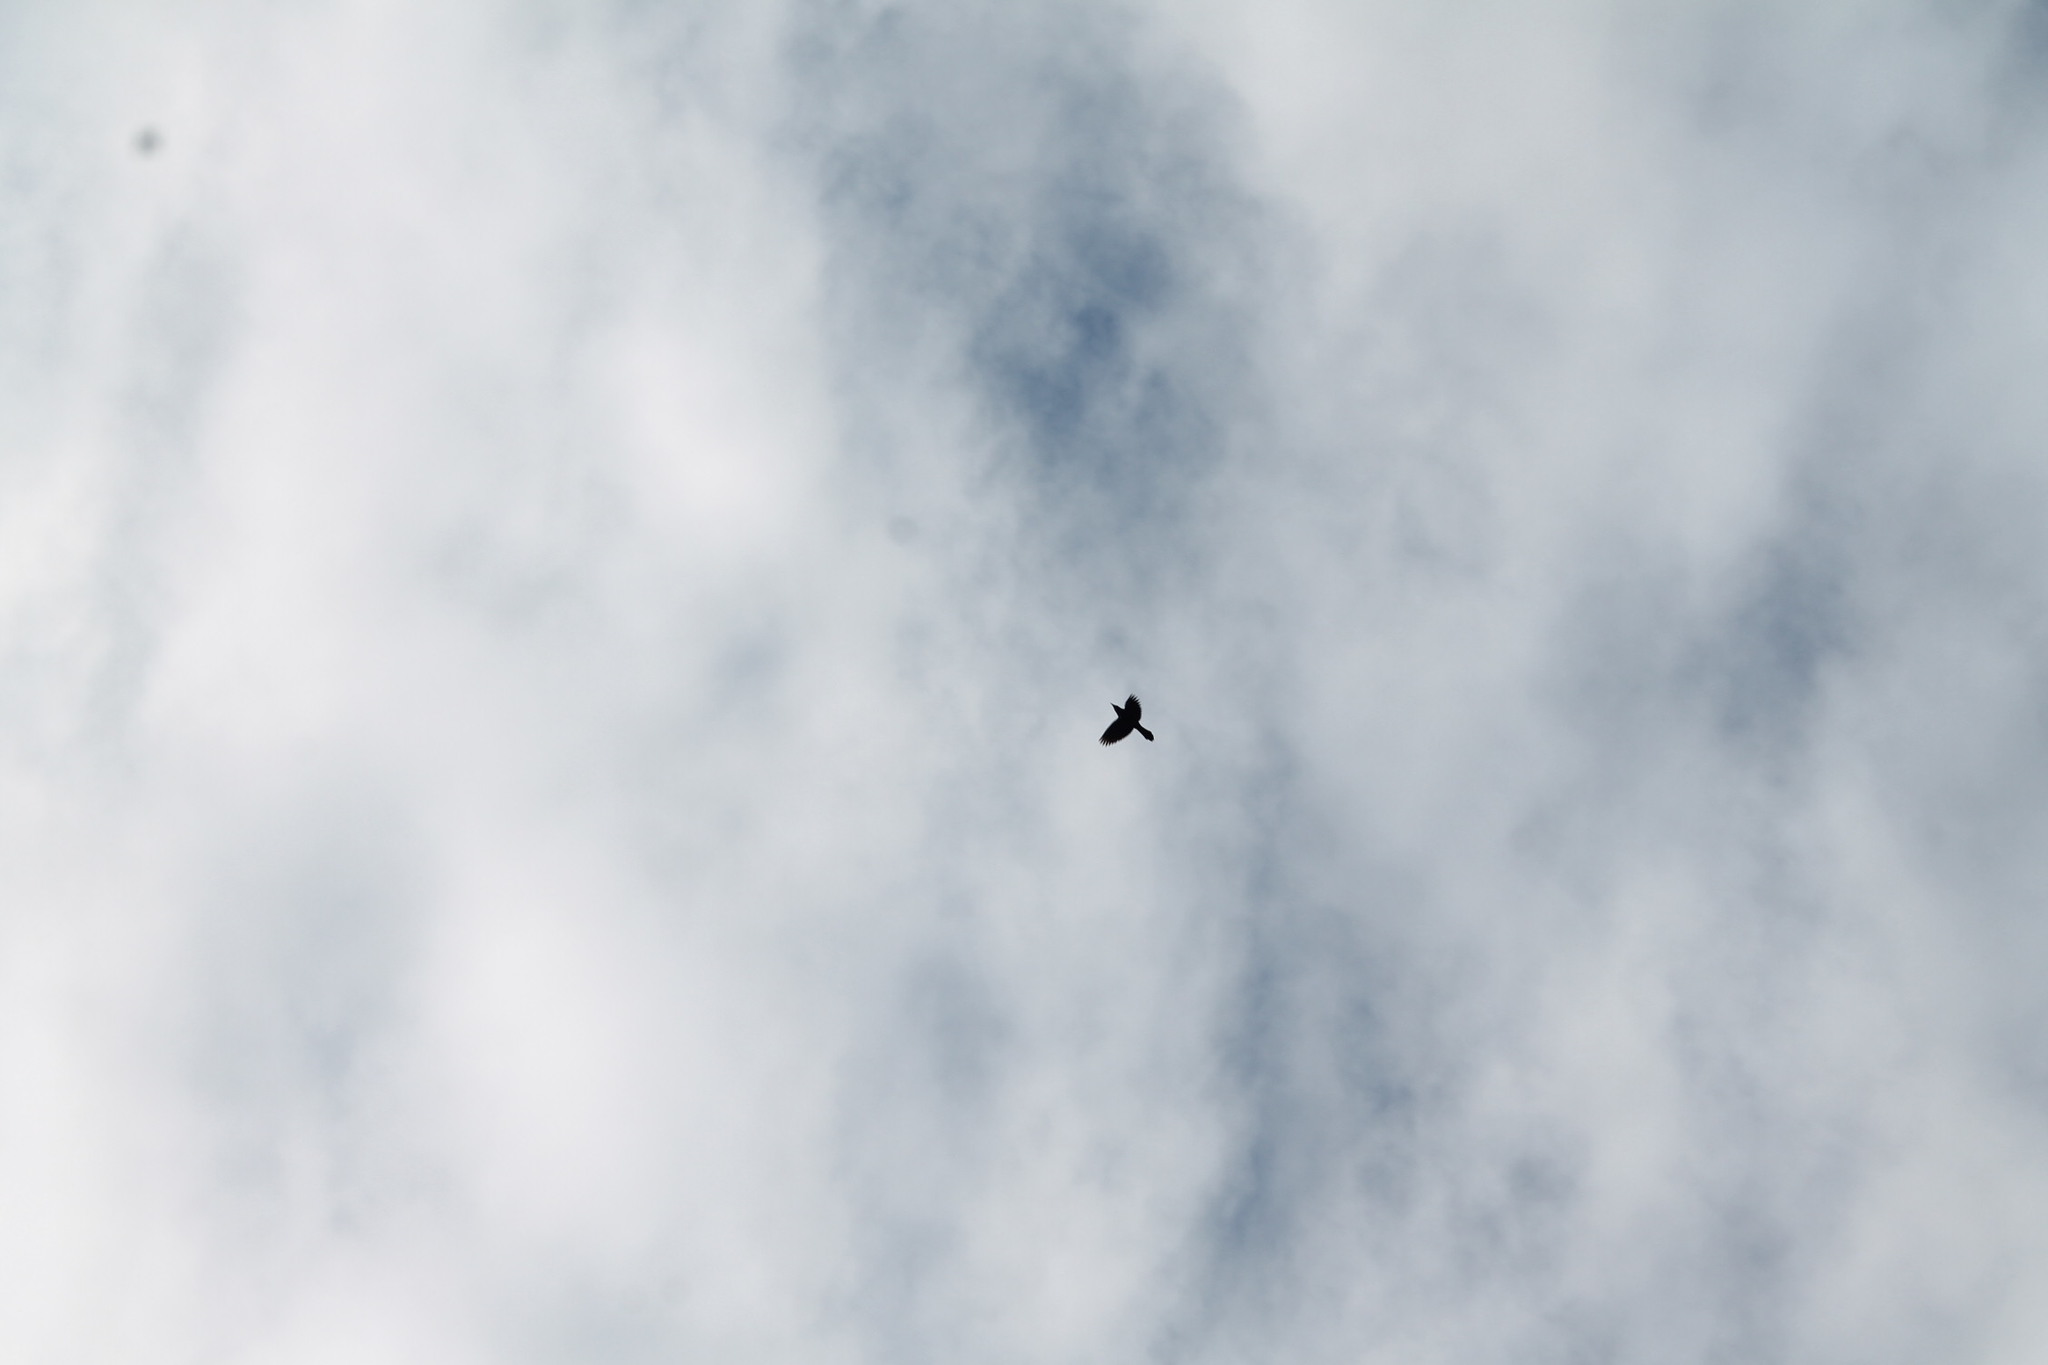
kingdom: Animalia
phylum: Chordata
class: Aves
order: Passeriformes
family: Icteridae
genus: Quiscalus
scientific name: Quiscalus quiscula
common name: Common grackle
